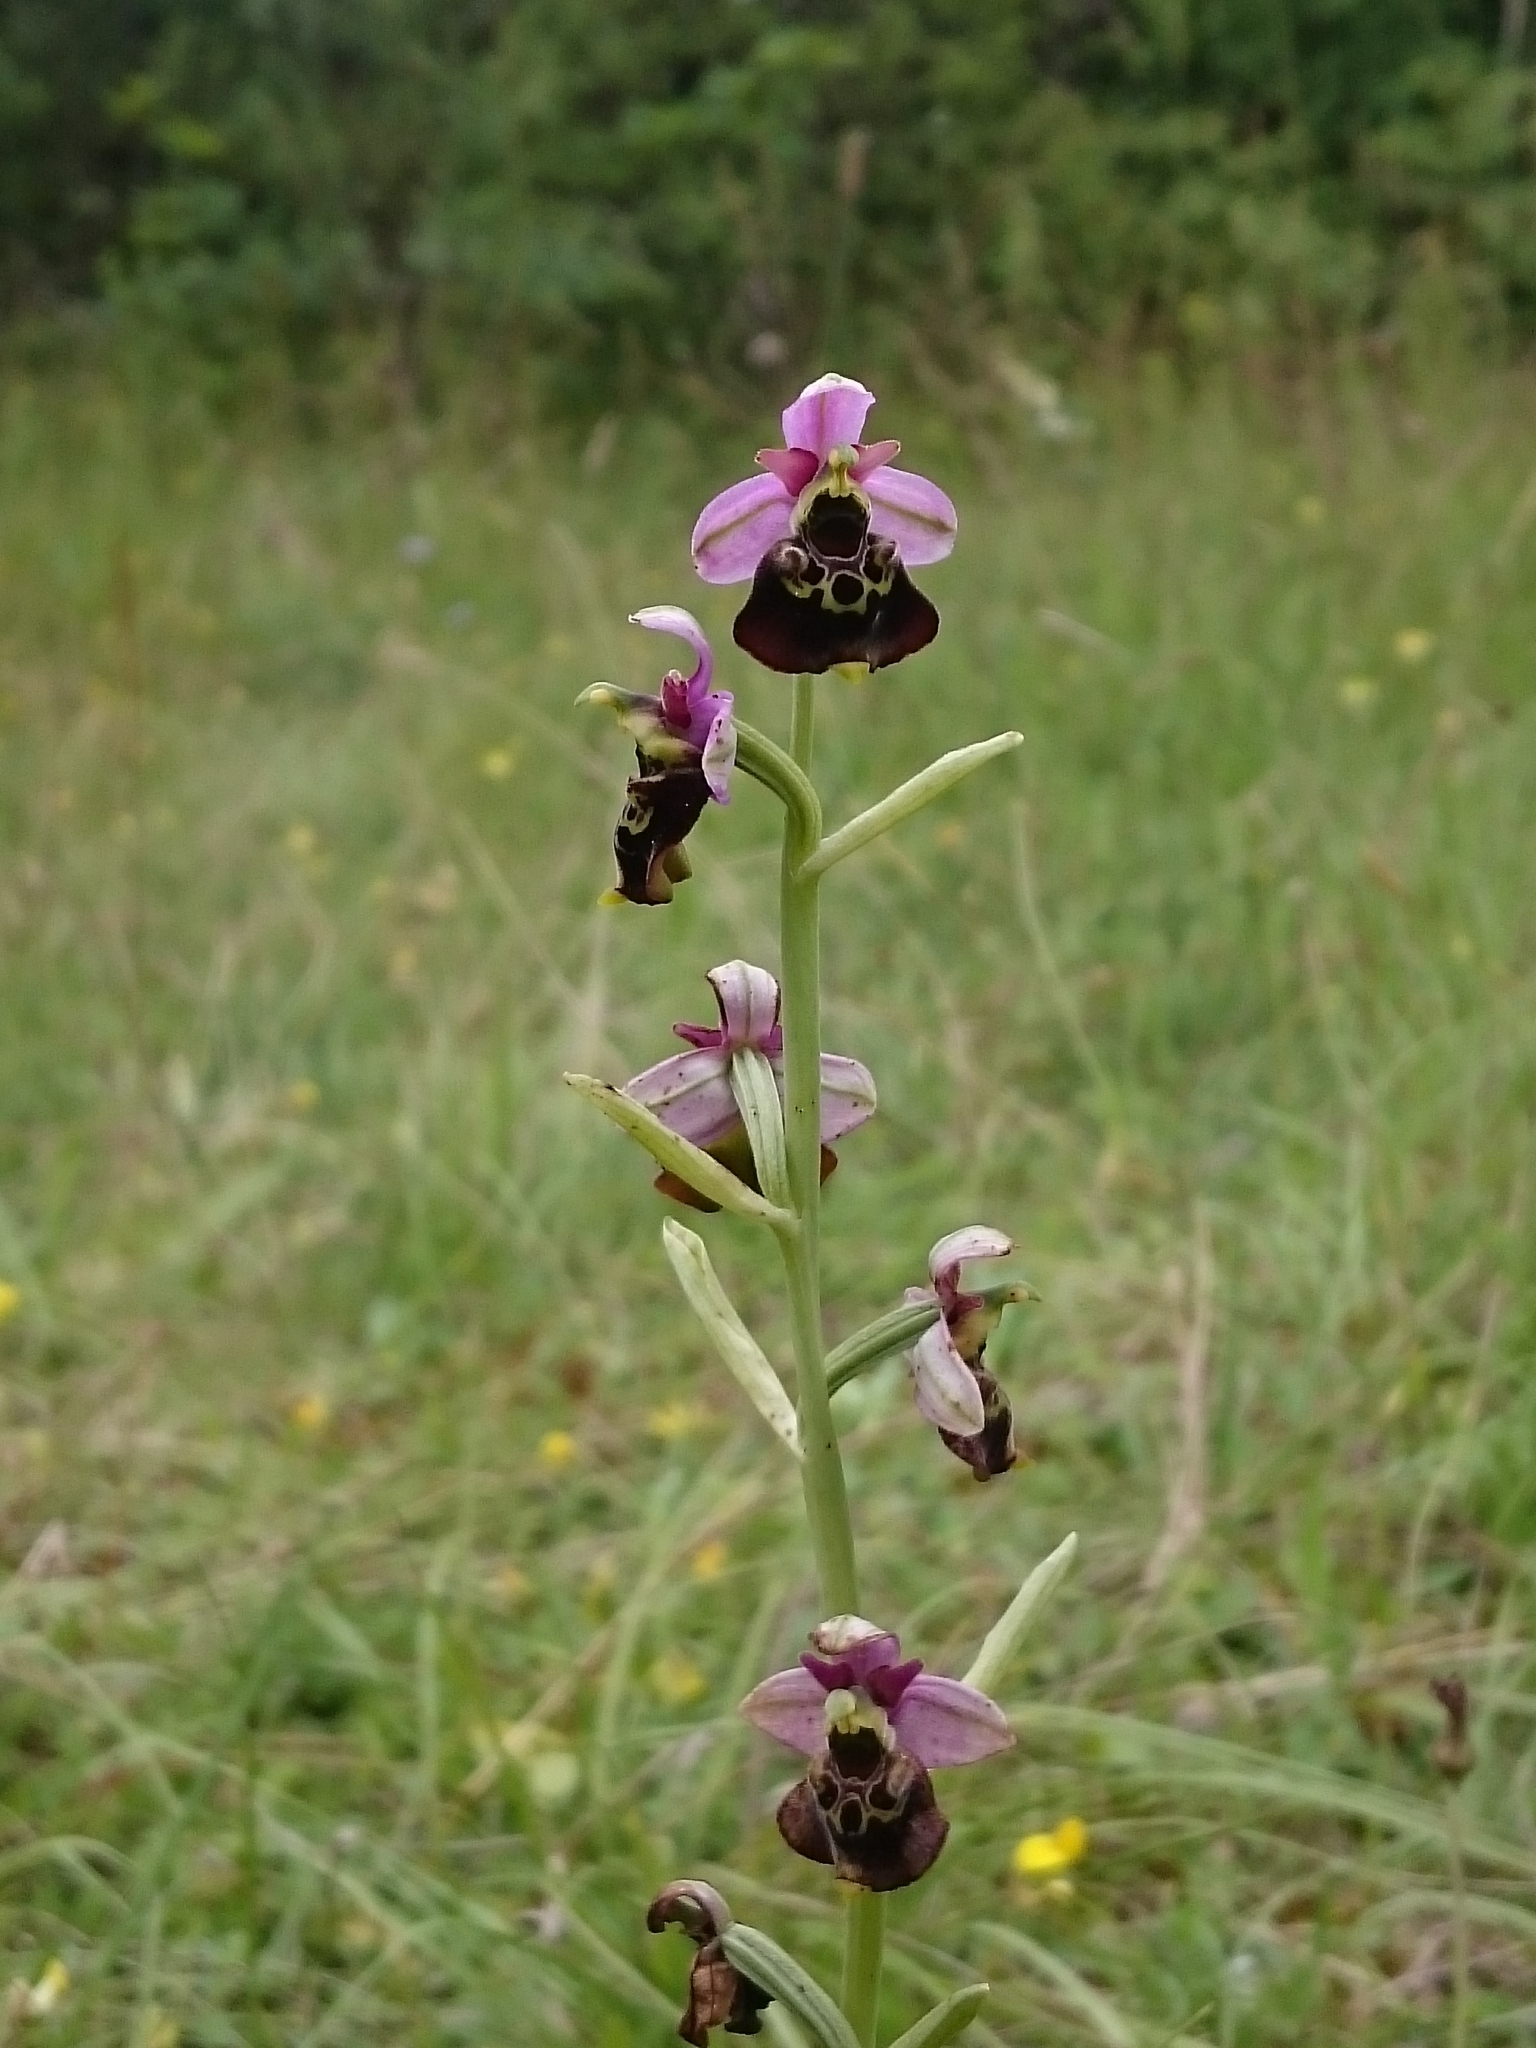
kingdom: Plantae
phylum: Tracheophyta
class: Liliopsida
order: Asparagales
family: Orchidaceae
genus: Ophrys
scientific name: Ophrys holosericea
